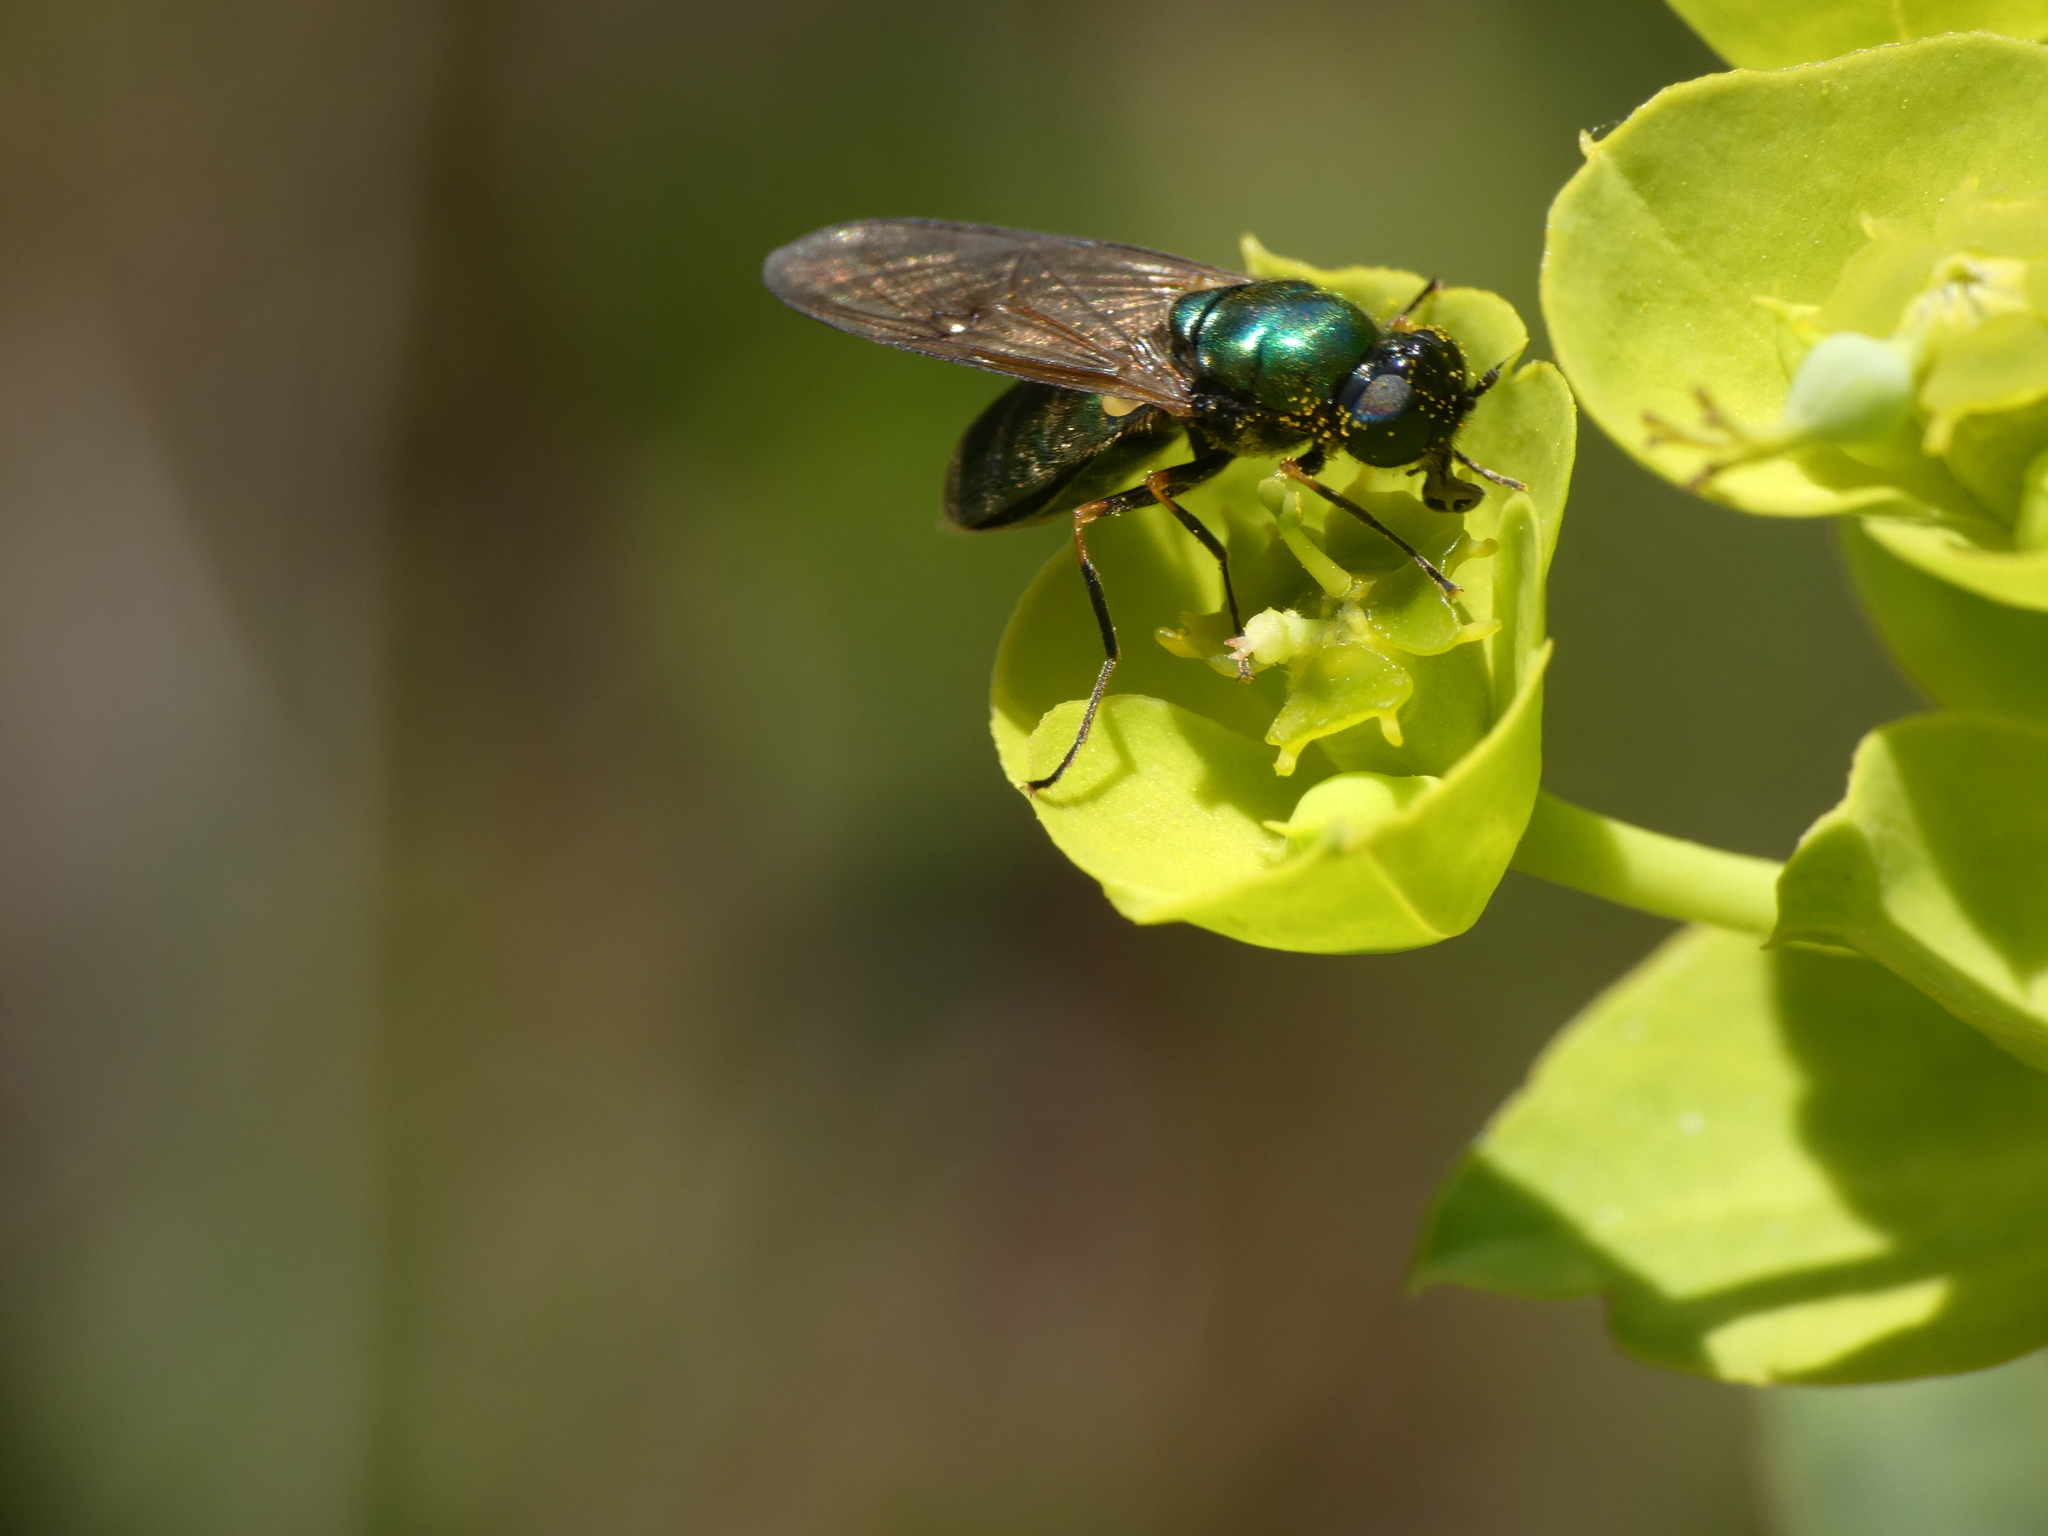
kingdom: Animalia
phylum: Arthropoda
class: Insecta
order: Diptera
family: Stratiomyidae
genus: Chloromyia
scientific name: Chloromyia formosa
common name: Soldier fly
